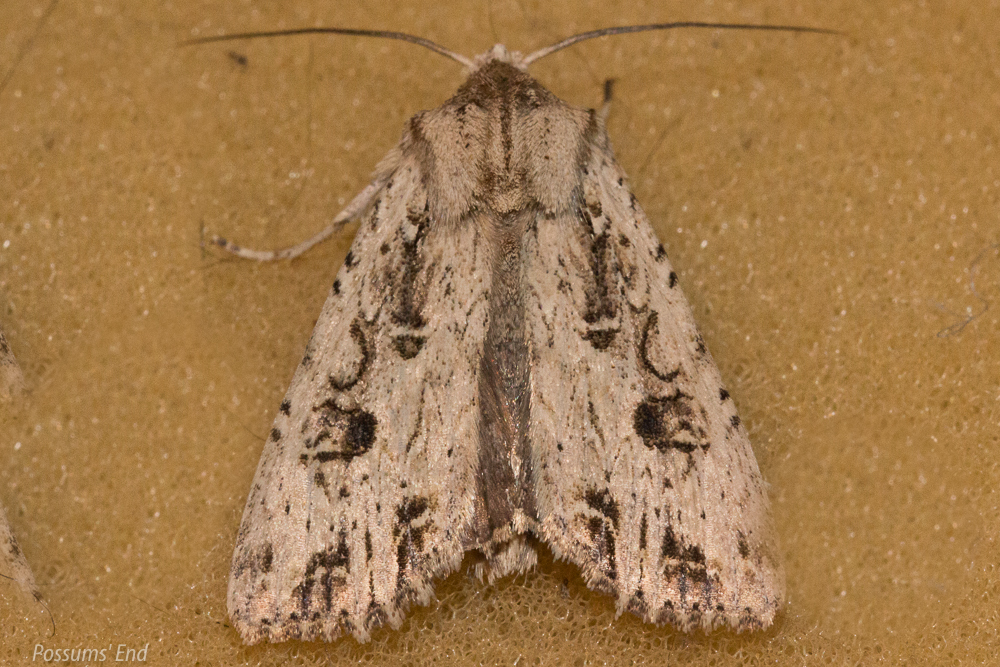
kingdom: Animalia
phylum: Arthropoda
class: Insecta
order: Lepidoptera
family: Noctuidae
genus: Ichneutica
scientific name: Ichneutica lignana
